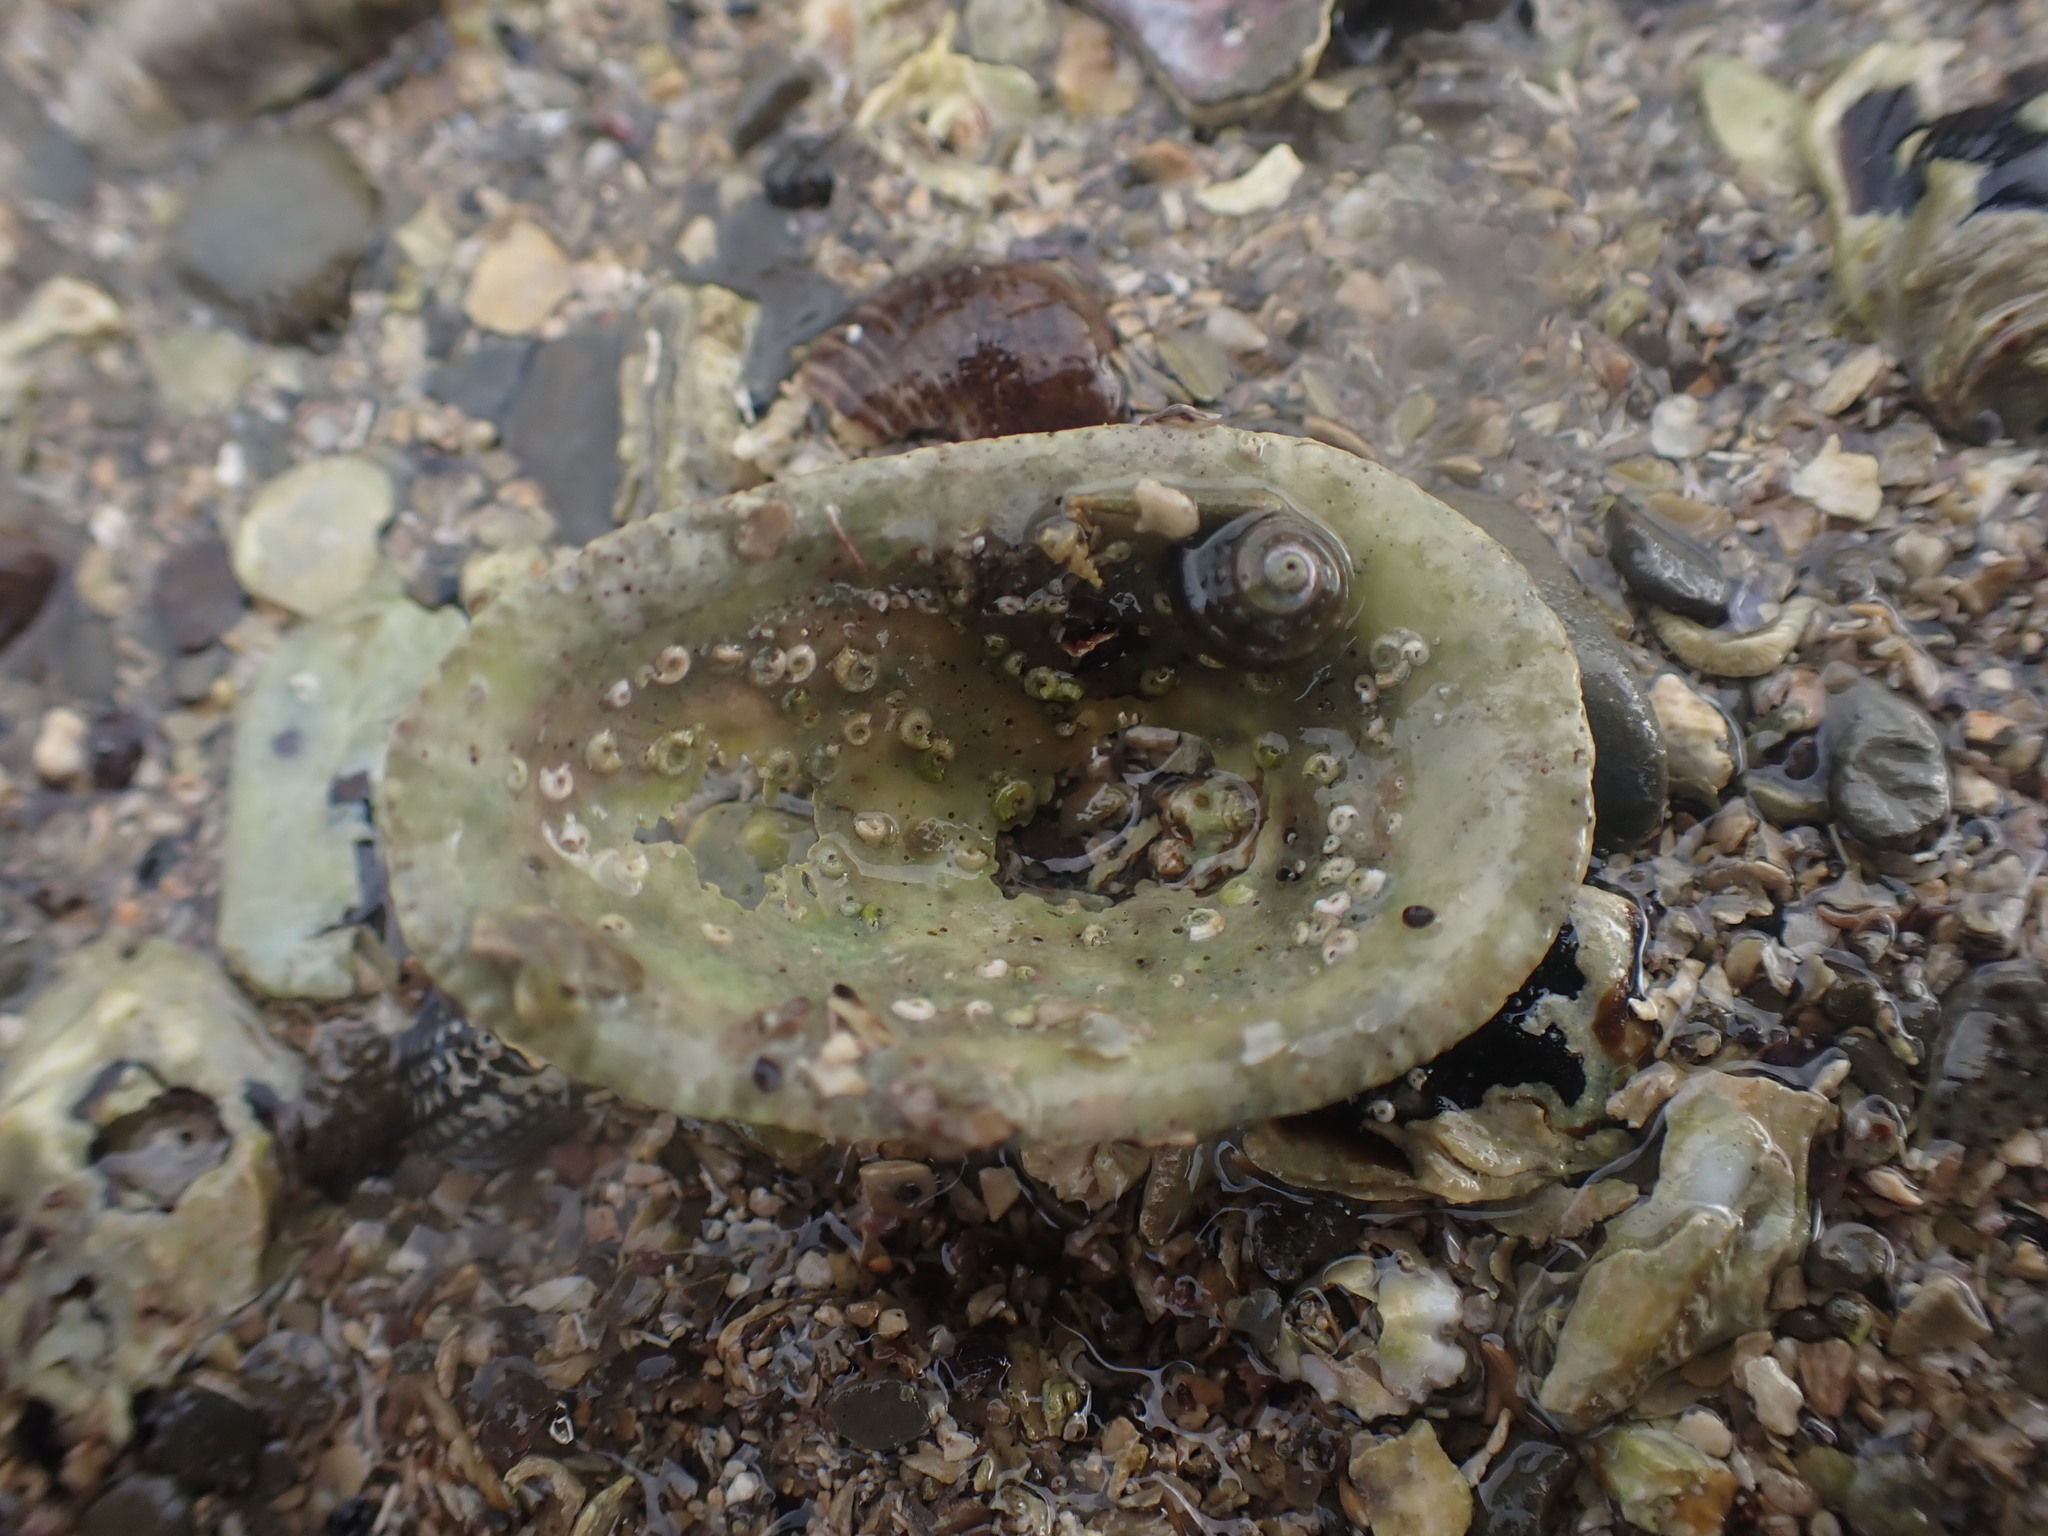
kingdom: Animalia
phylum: Mollusca
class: Gastropoda
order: Lepetellida
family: Fissurellidae
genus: Tugali
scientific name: Tugali elegans
